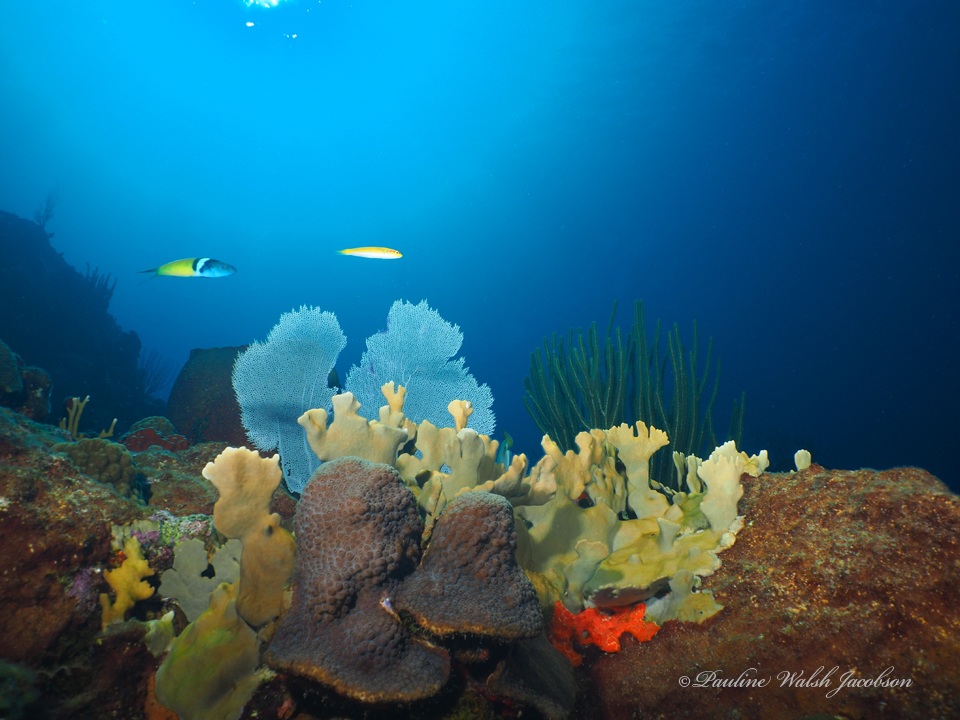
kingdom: Animalia
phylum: Chordata
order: Perciformes
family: Labridae
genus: Thalassoma
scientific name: Thalassoma bifasciatum
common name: Bluehead wrasse
